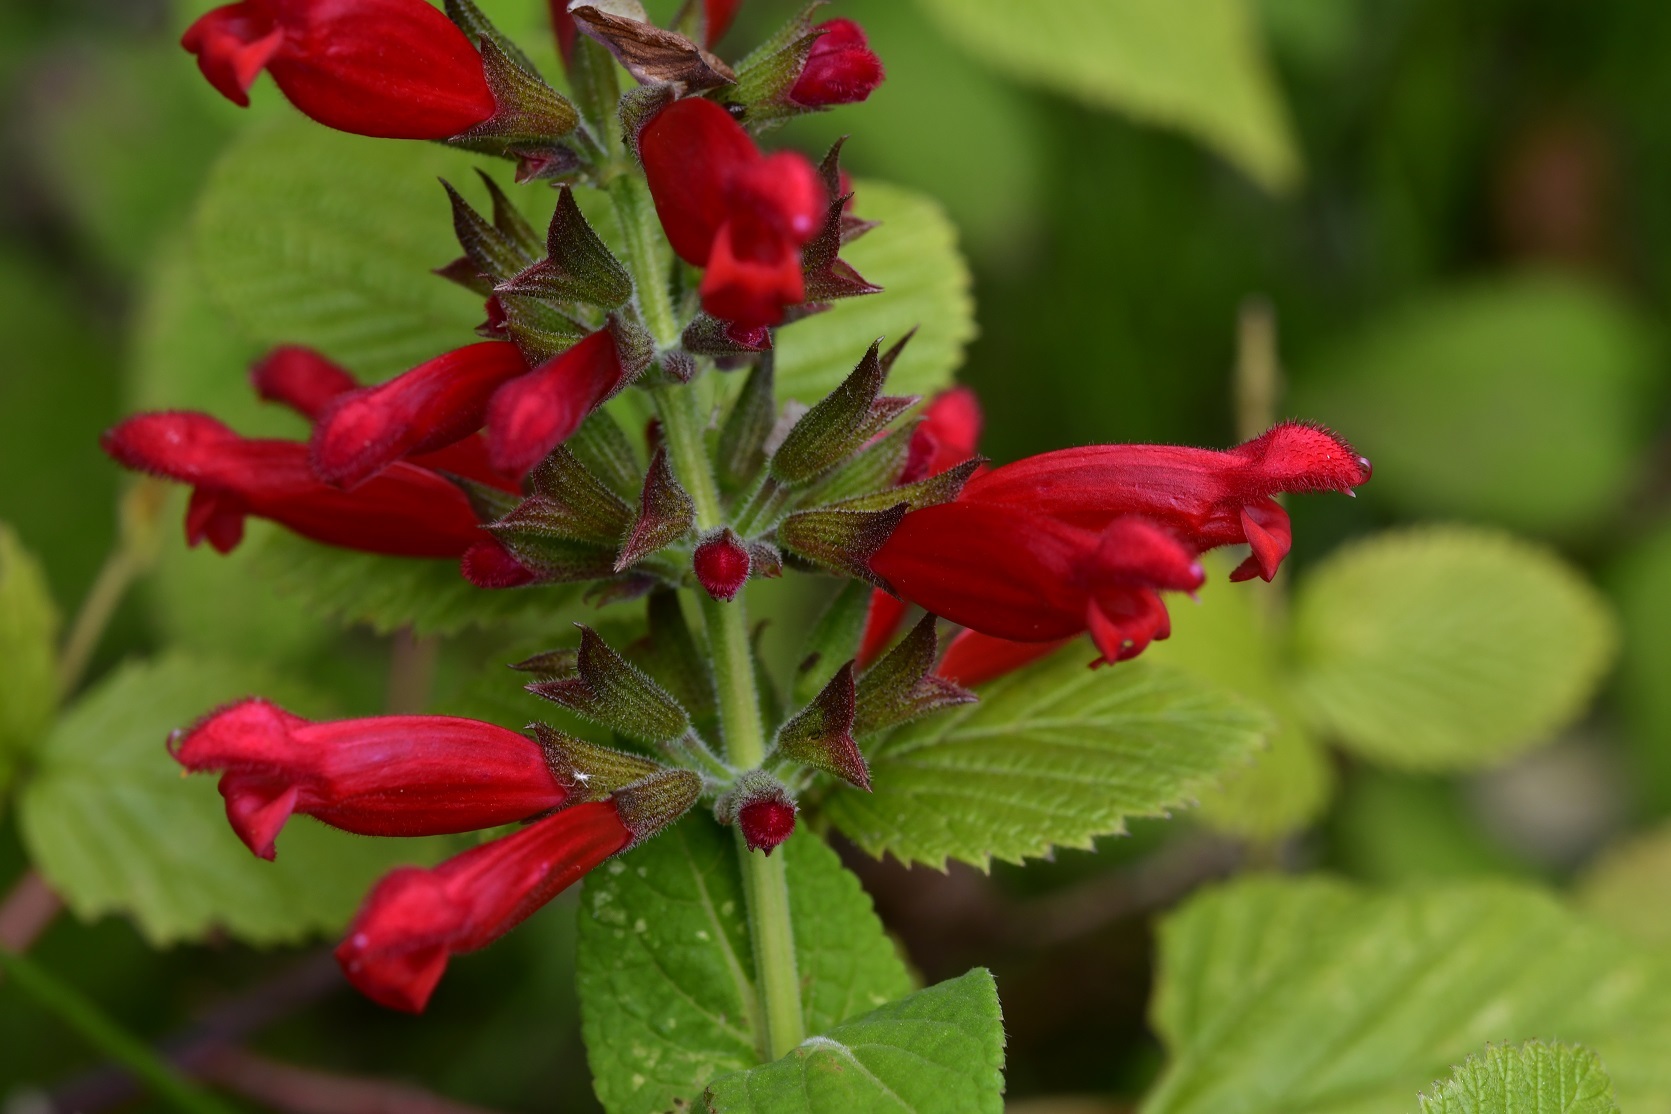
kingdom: Plantae
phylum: Tracheophyta
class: Magnoliopsida
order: Lamiales
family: Lamiaceae
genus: Salvia
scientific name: Salvia holwayi
